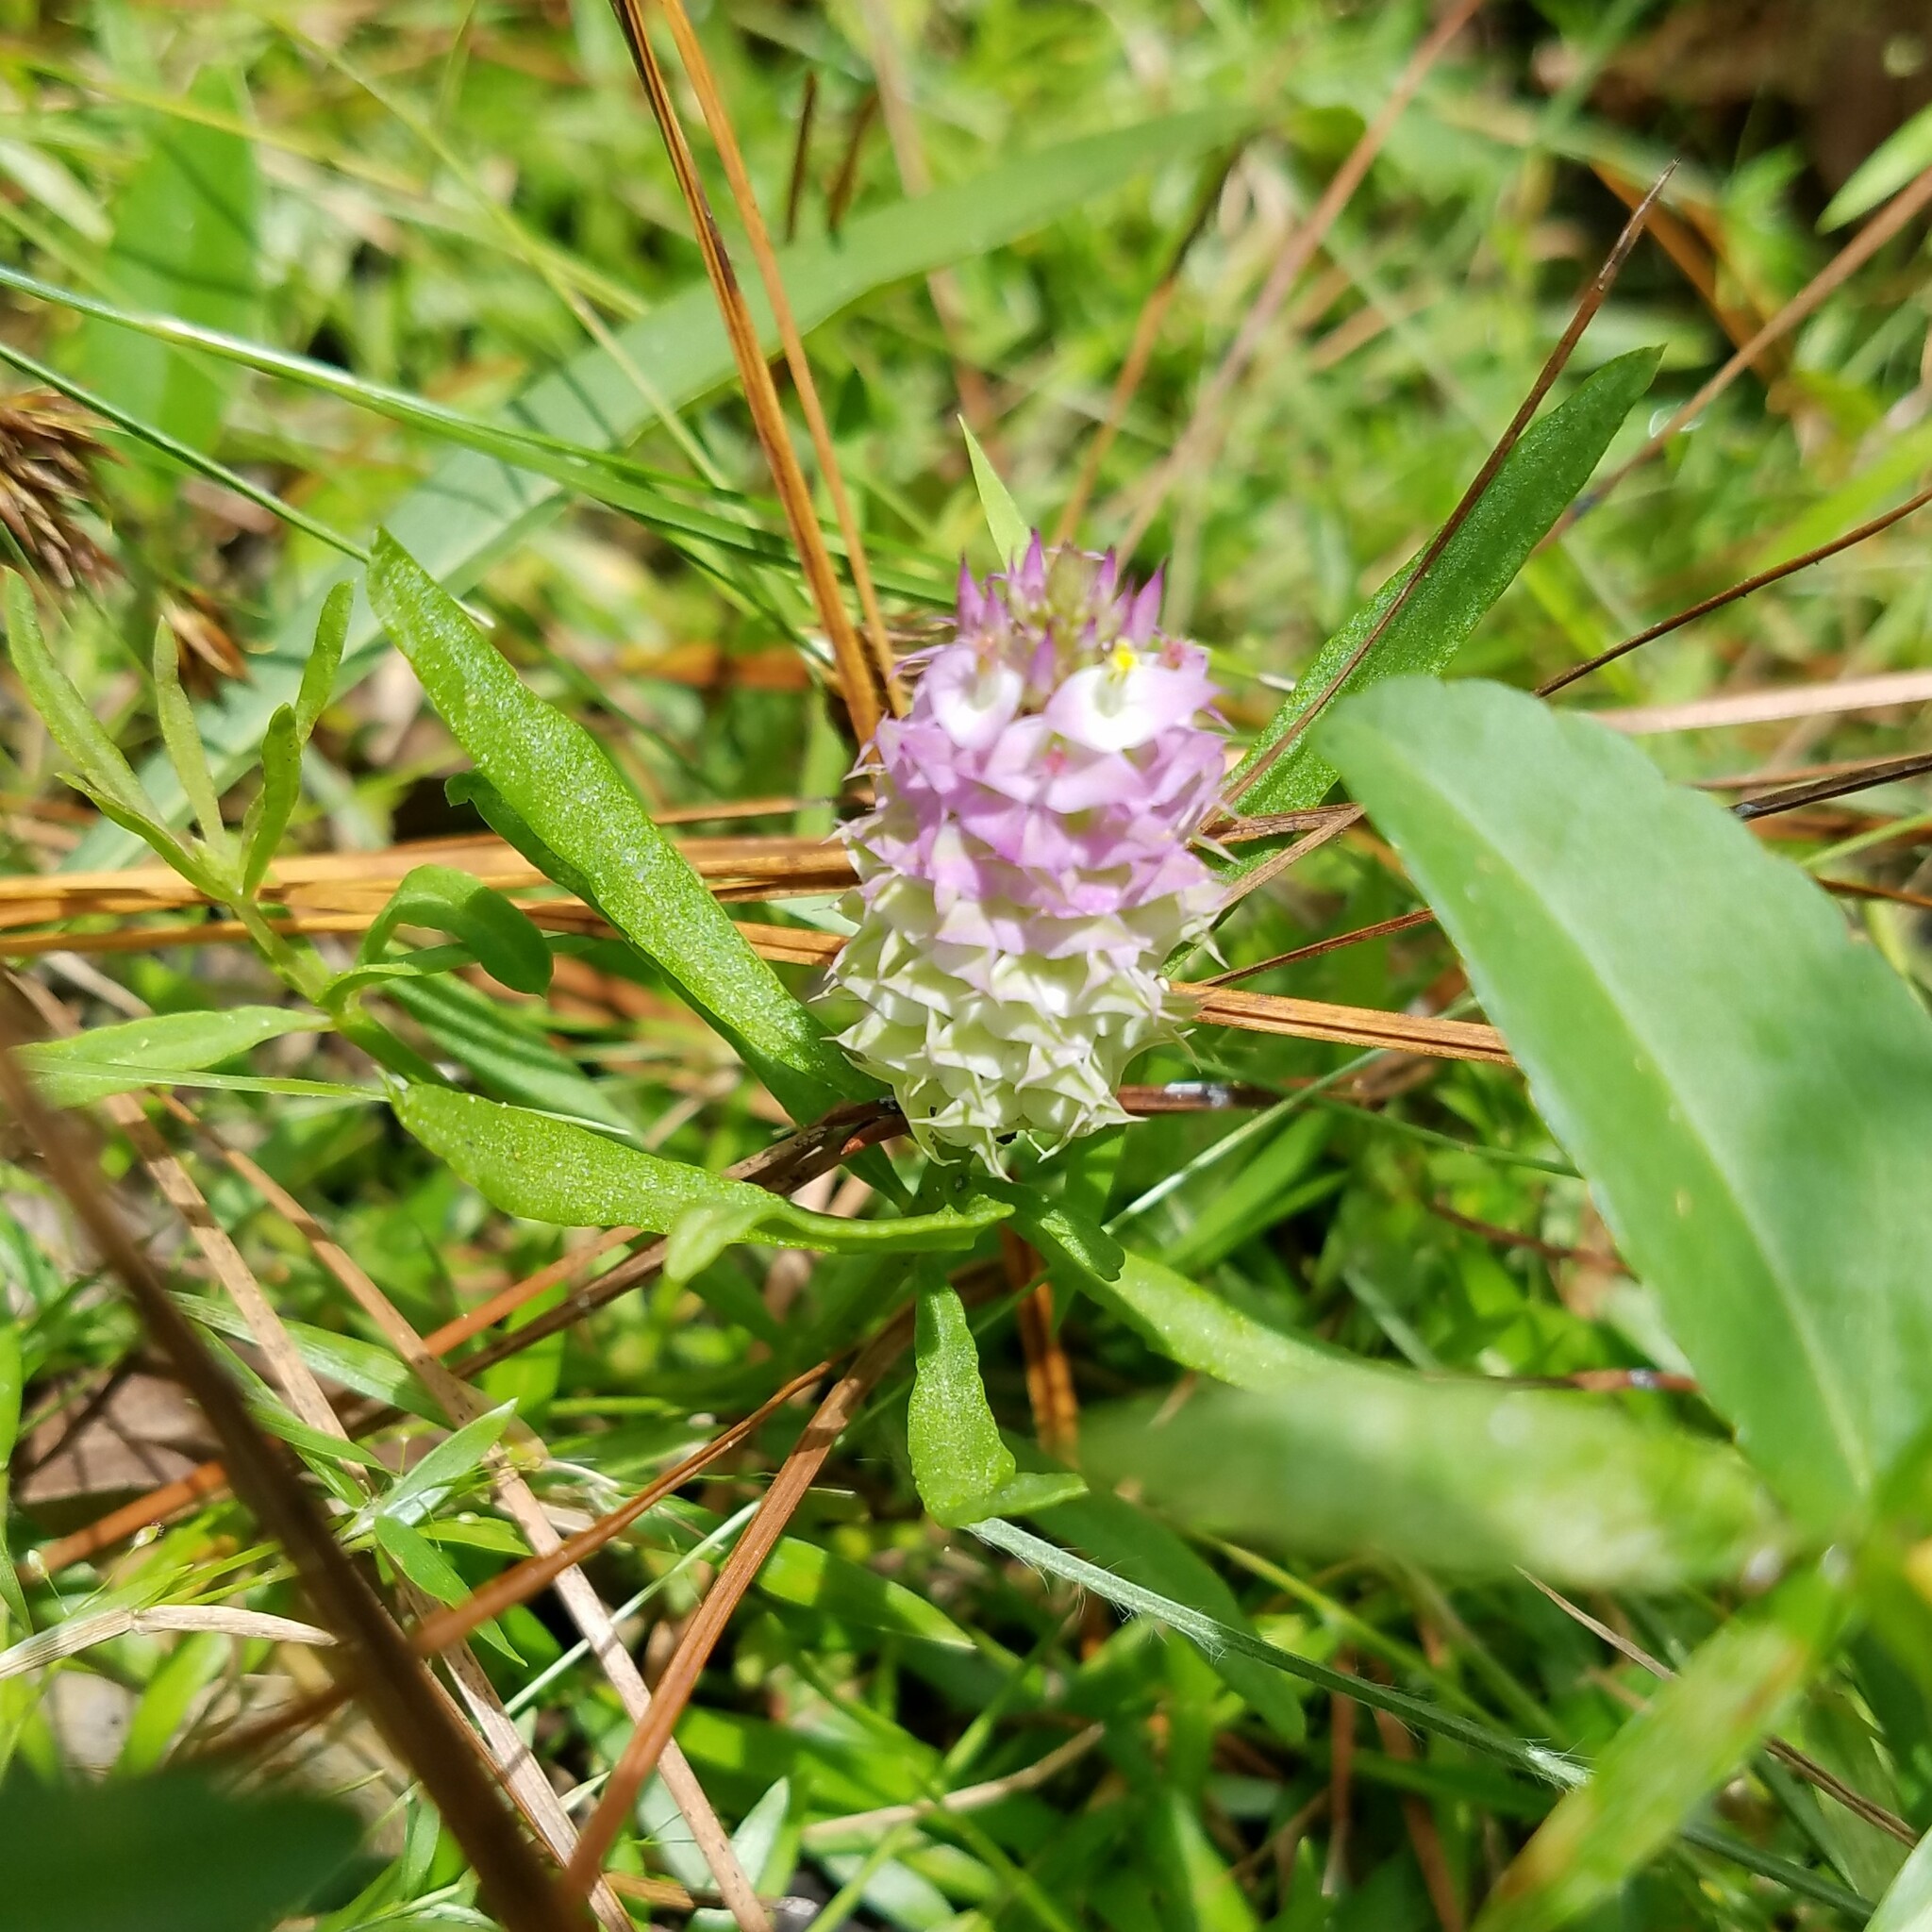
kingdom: Plantae
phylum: Tracheophyta
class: Magnoliopsida
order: Fabales
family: Polygalaceae
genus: Polygala
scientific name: Polygala cruciata
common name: Drumheads
